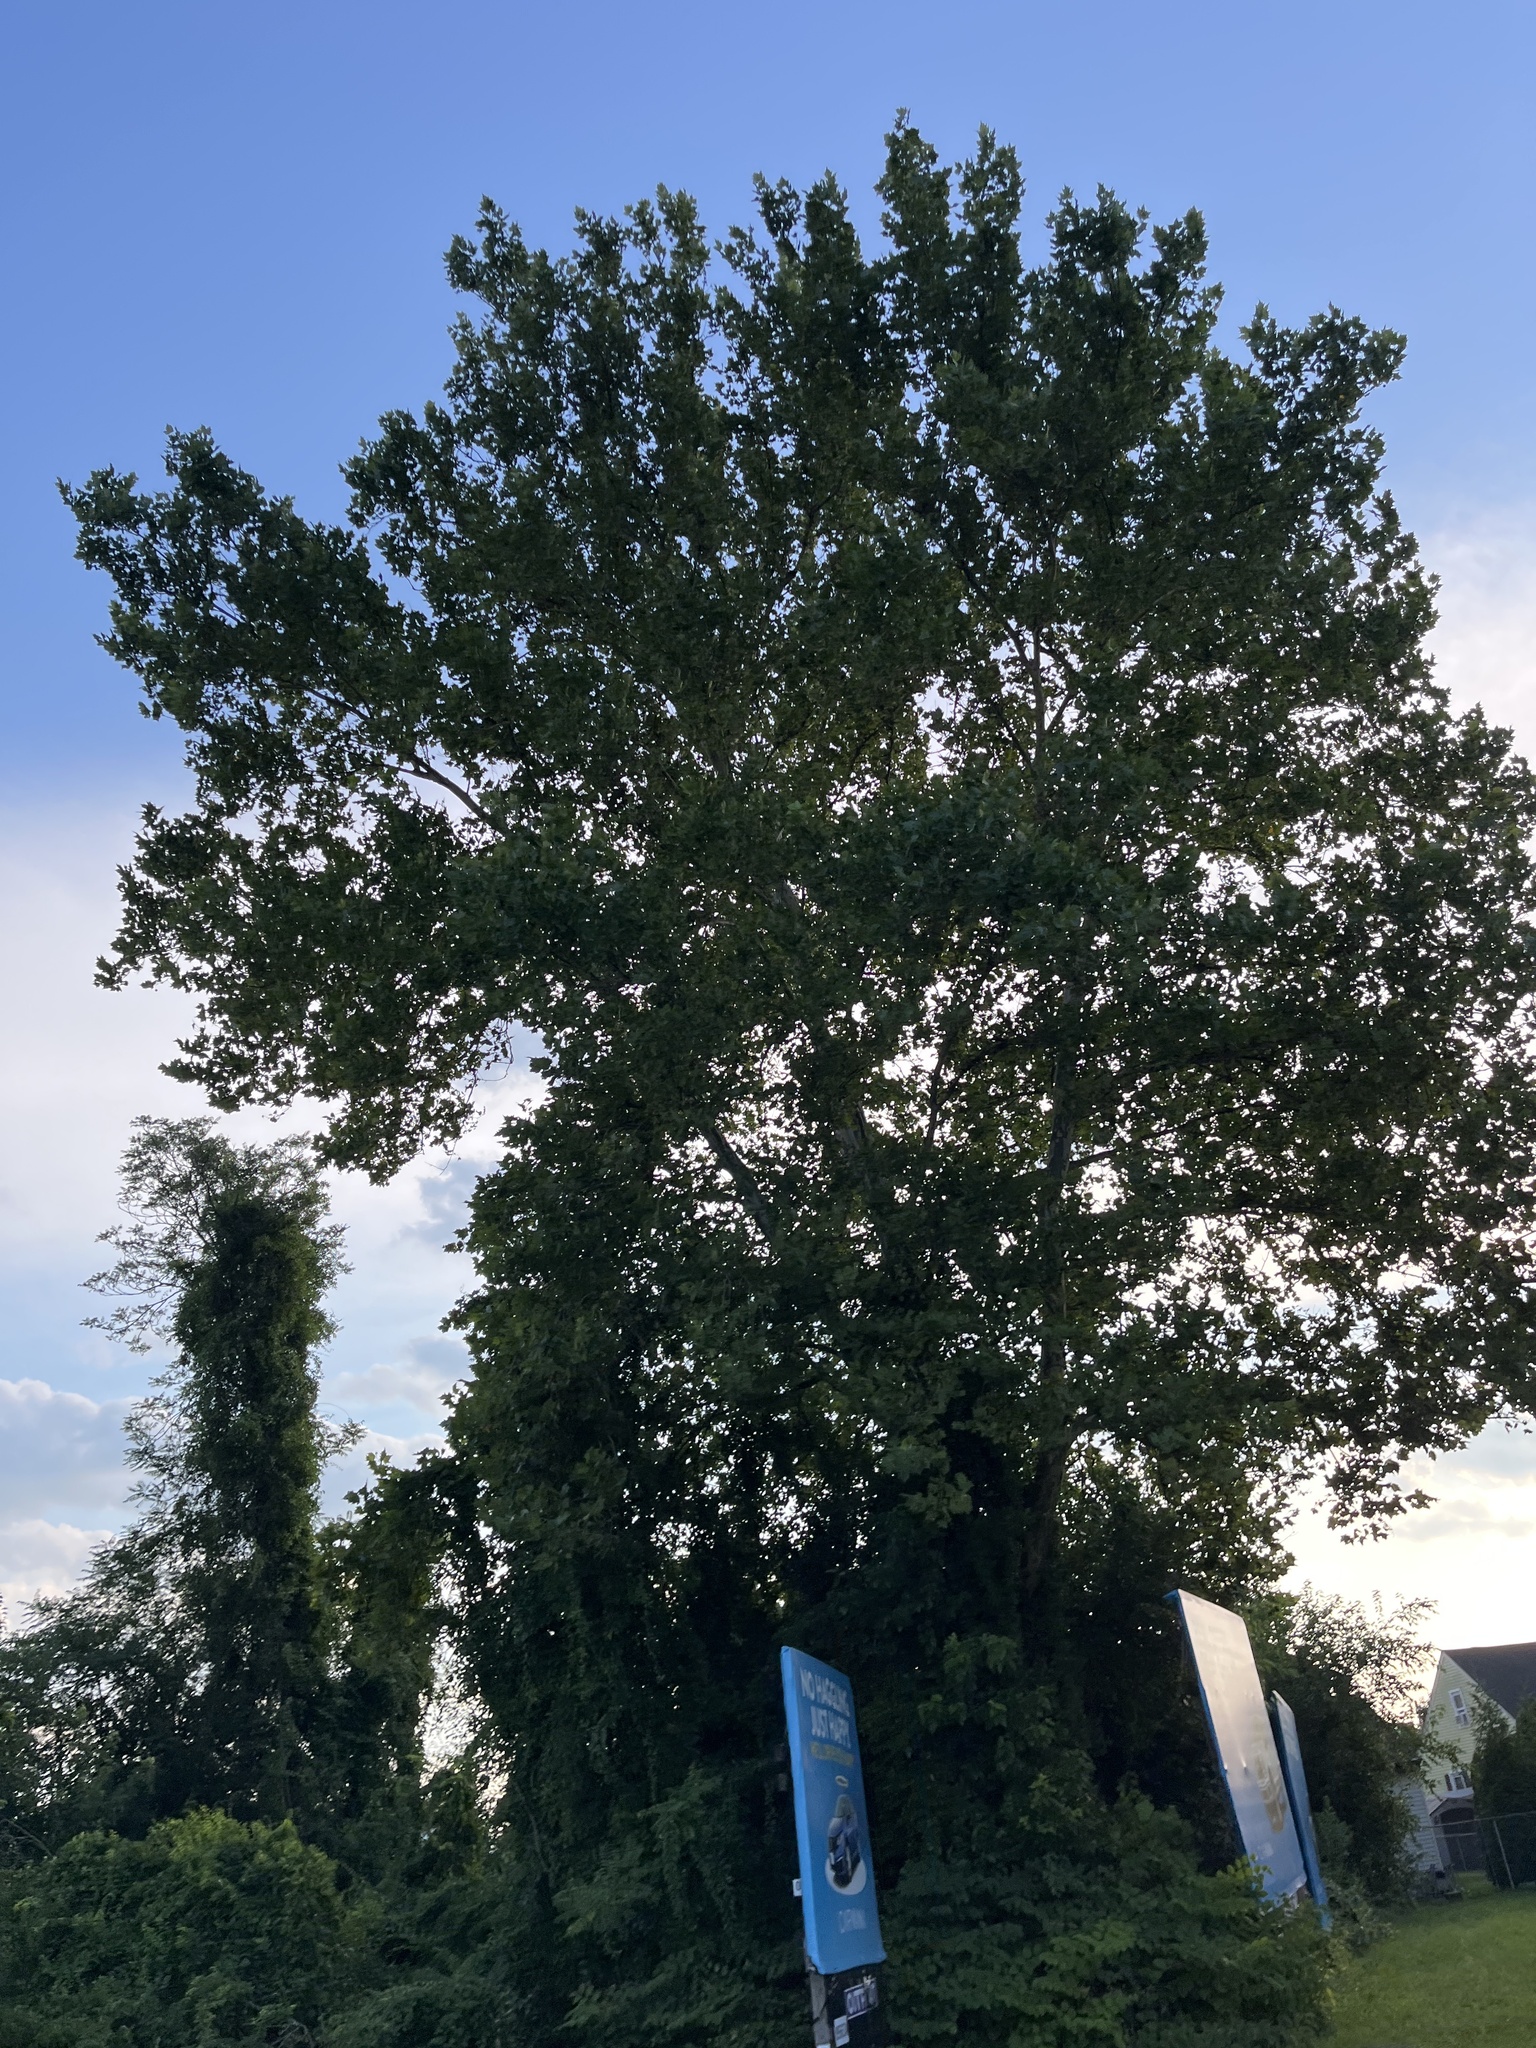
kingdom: Plantae
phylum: Tracheophyta
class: Magnoliopsida
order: Proteales
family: Platanaceae
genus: Platanus
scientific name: Platanus occidentalis
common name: American sycamore
